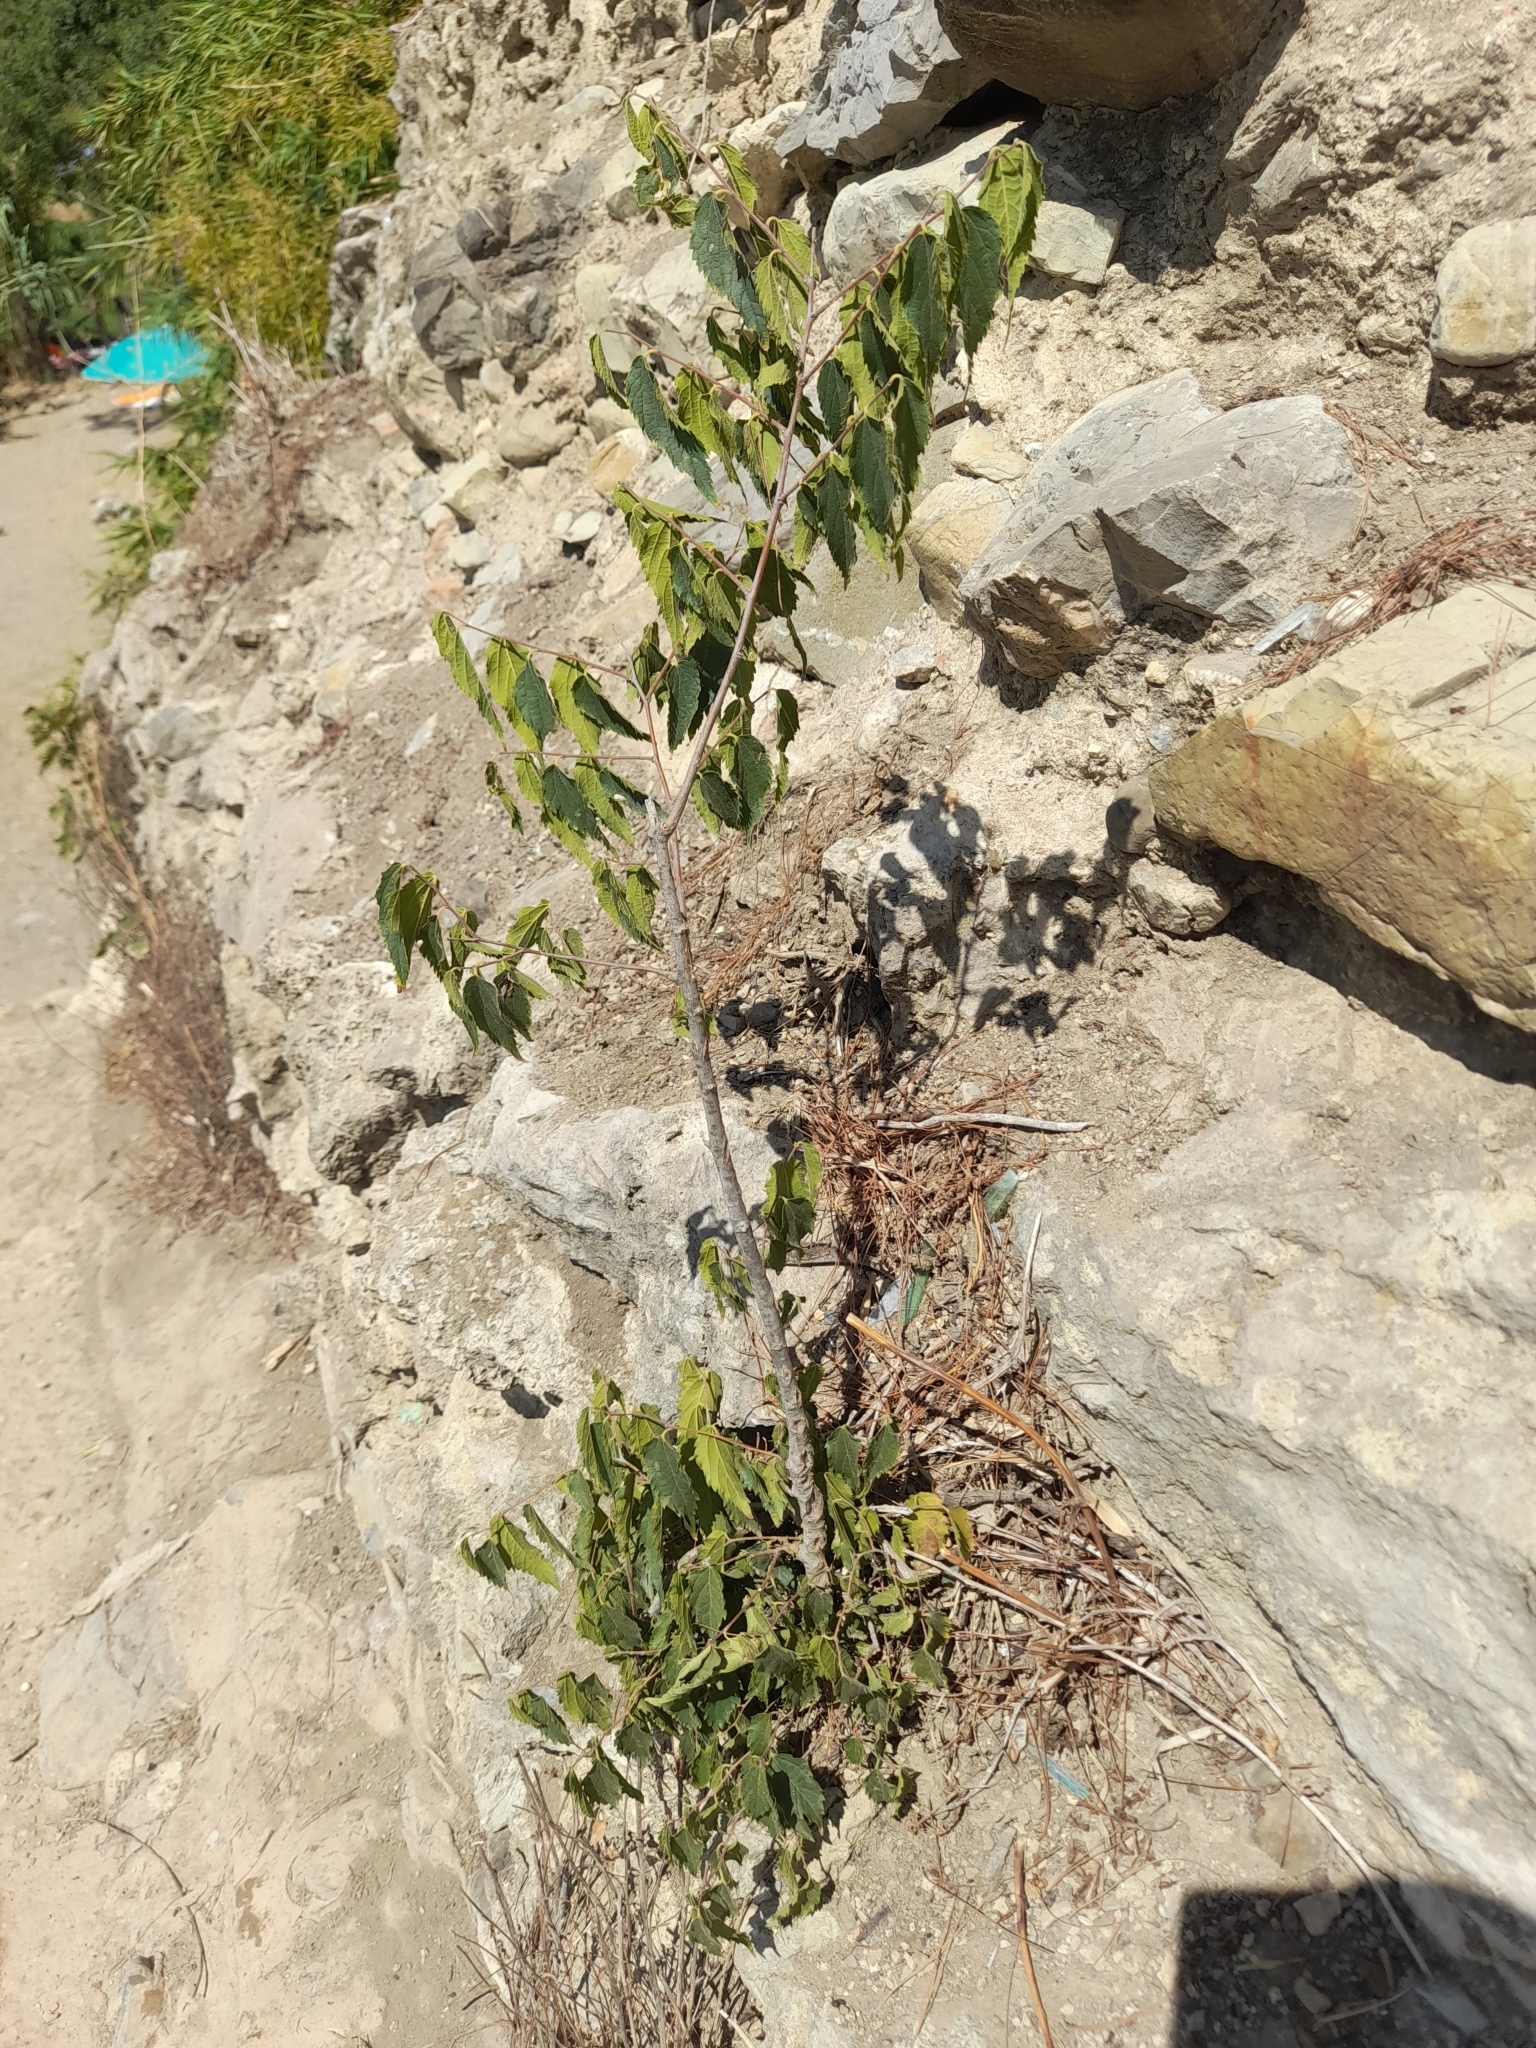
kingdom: Plantae
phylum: Tracheophyta
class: Magnoliopsida
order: Rosales
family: Cannabaceae
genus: Celtis
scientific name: Celtis australis
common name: European hackberry
